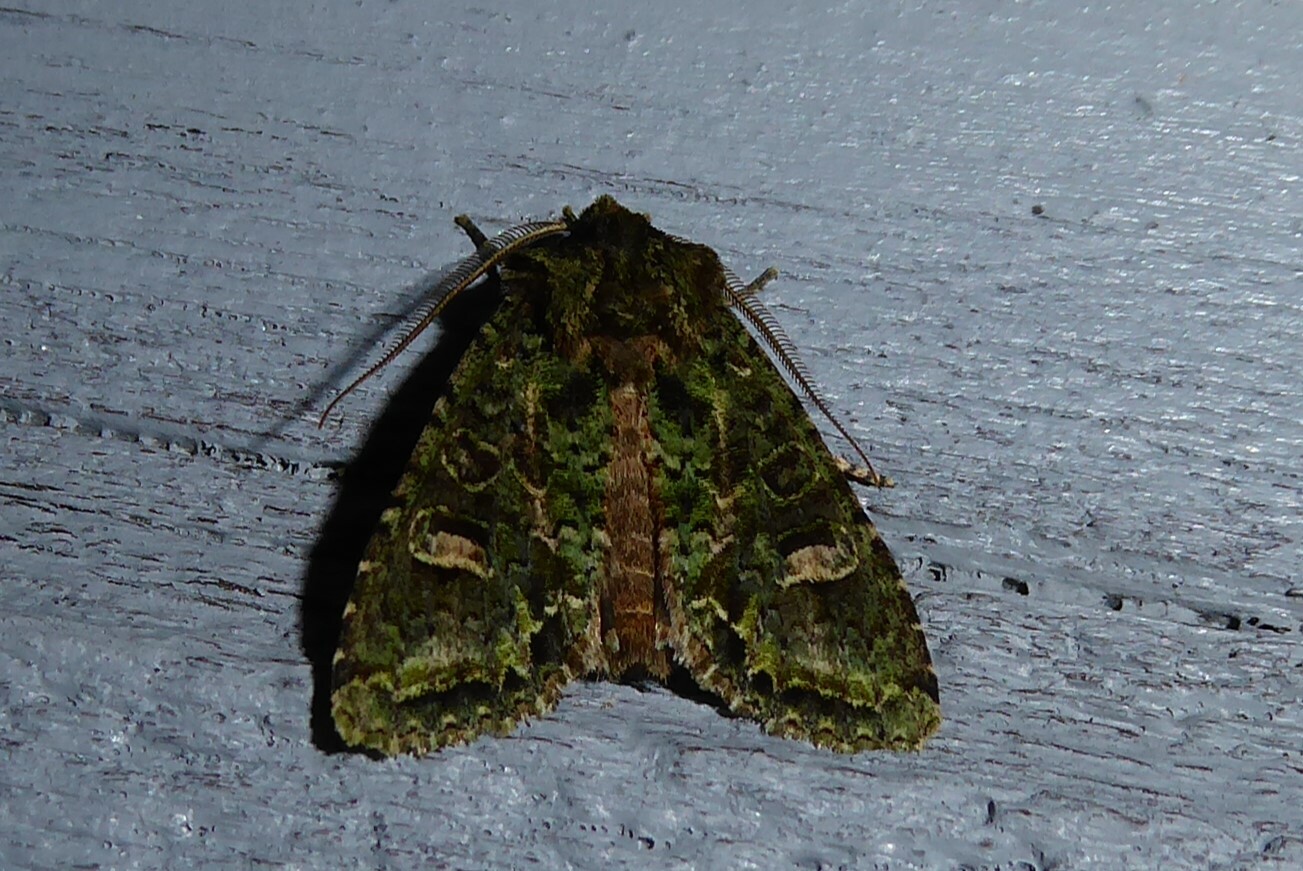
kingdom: Animalia
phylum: Arthropoda
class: Insecta
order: Lepidoptera
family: Noctuidae
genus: Ichneutica
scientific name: Ichneutica
